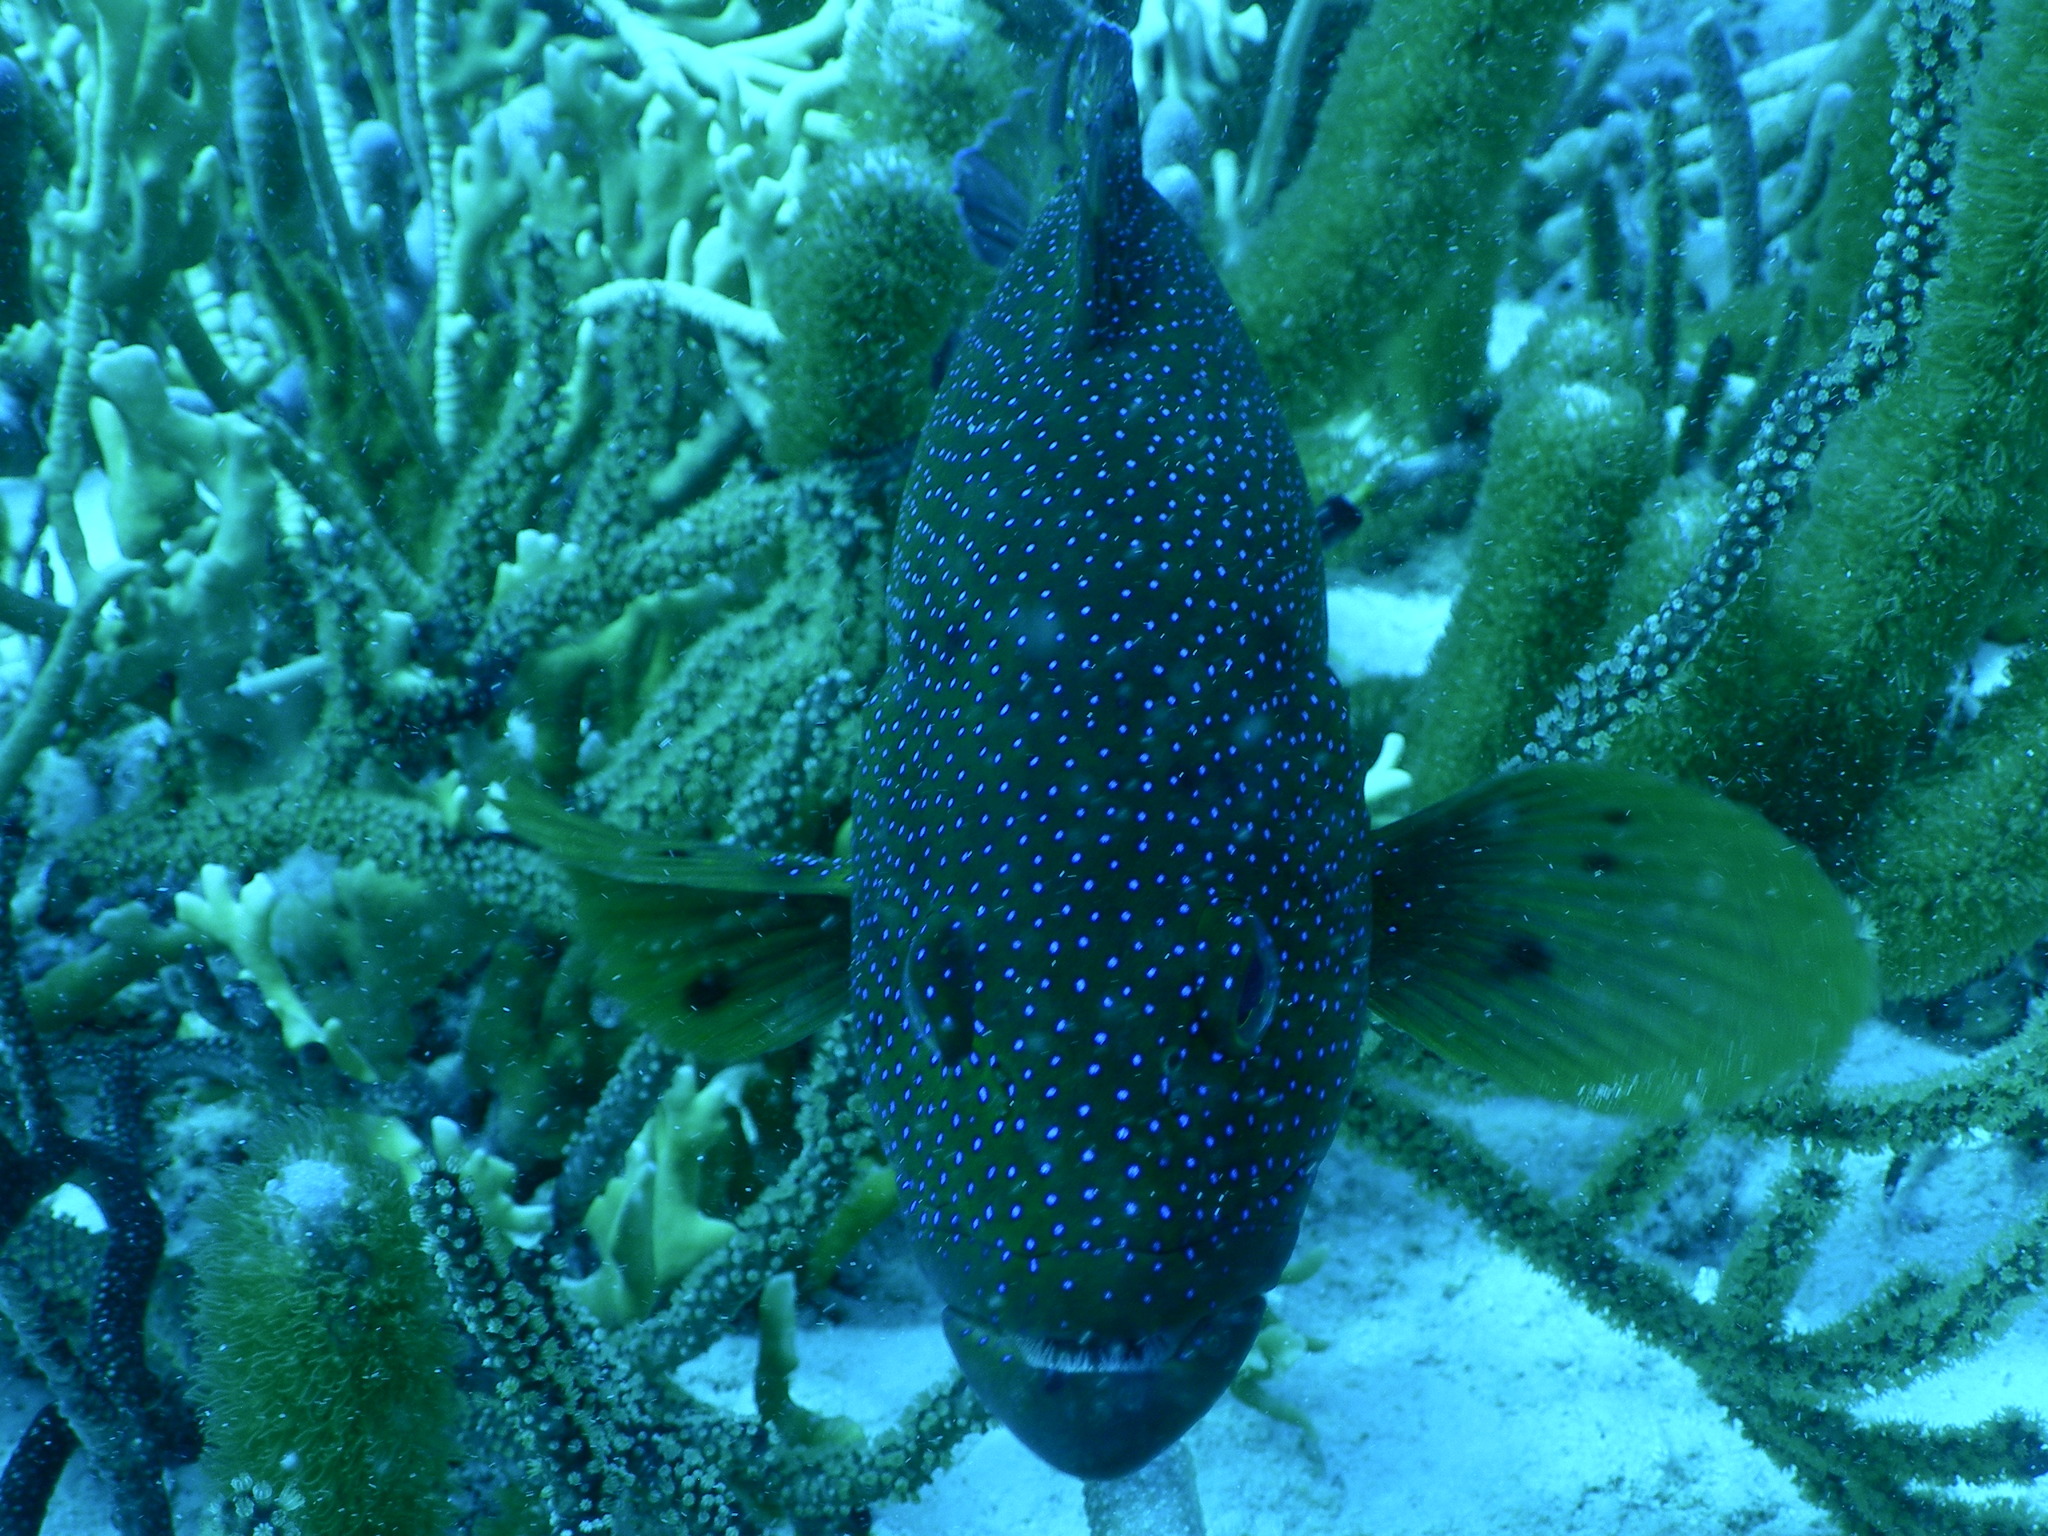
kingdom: Animalia
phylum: Chordata
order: Perciformes
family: Serranidae
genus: Cephalopholis
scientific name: Cephalopholis fulva
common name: Butterfish
